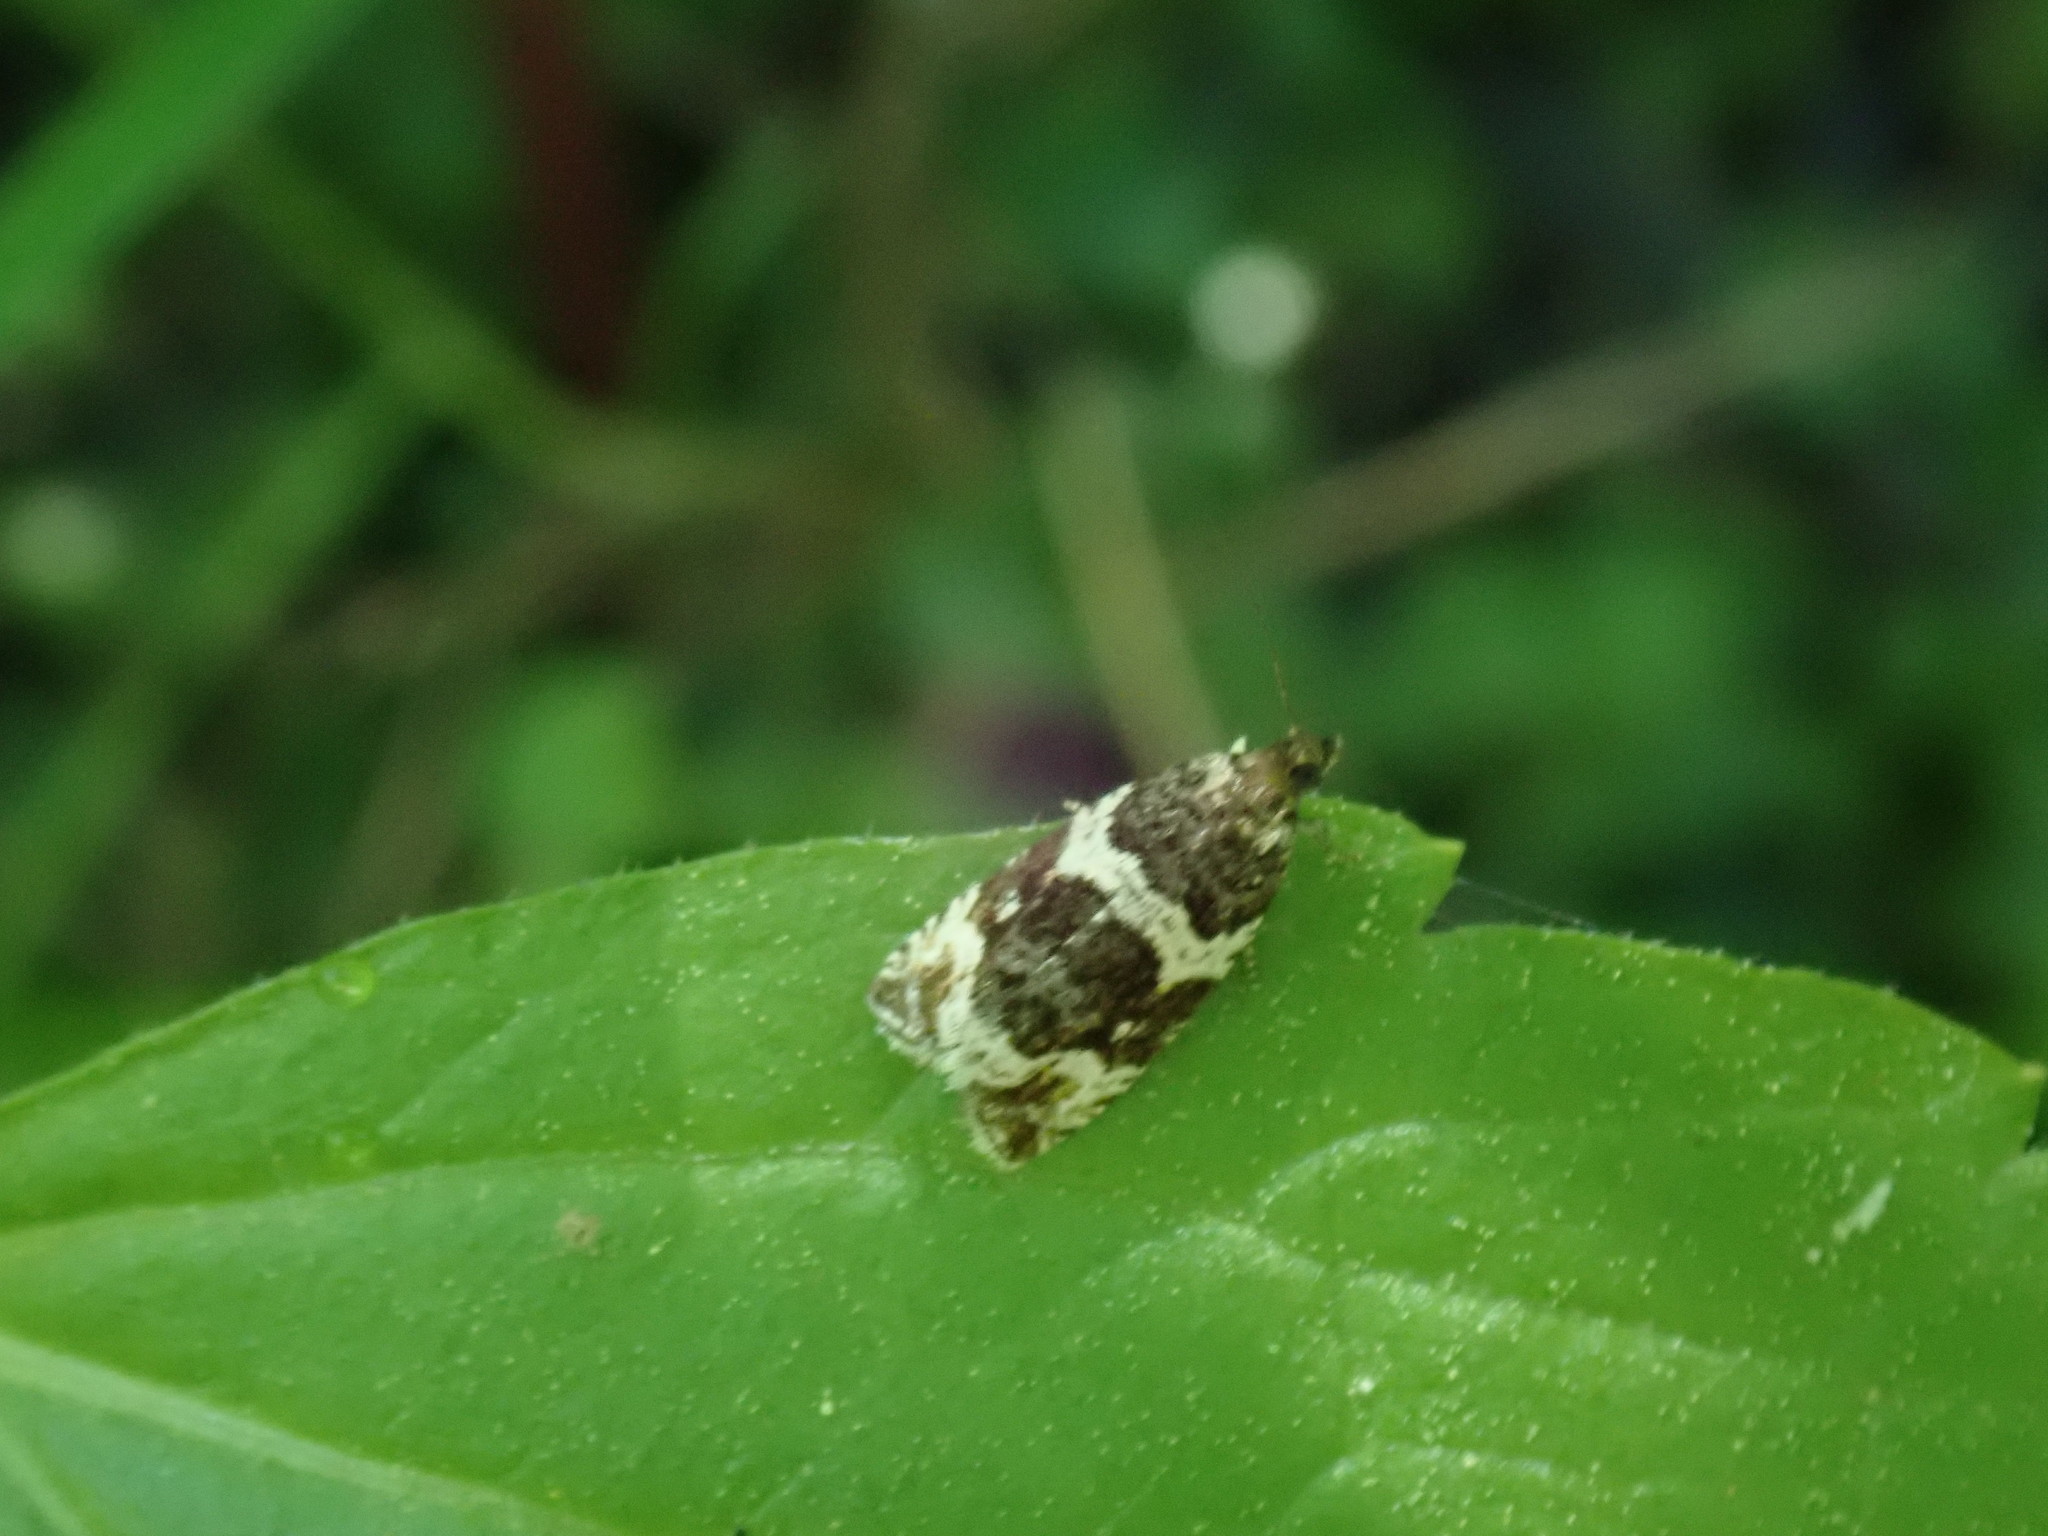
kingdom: Animalia
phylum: Arthropoda
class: Insecta
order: Lepidoptera
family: Tortricidae
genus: Olethreutes
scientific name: Olethreutes fasciatana
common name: Banded olethreutes moth
